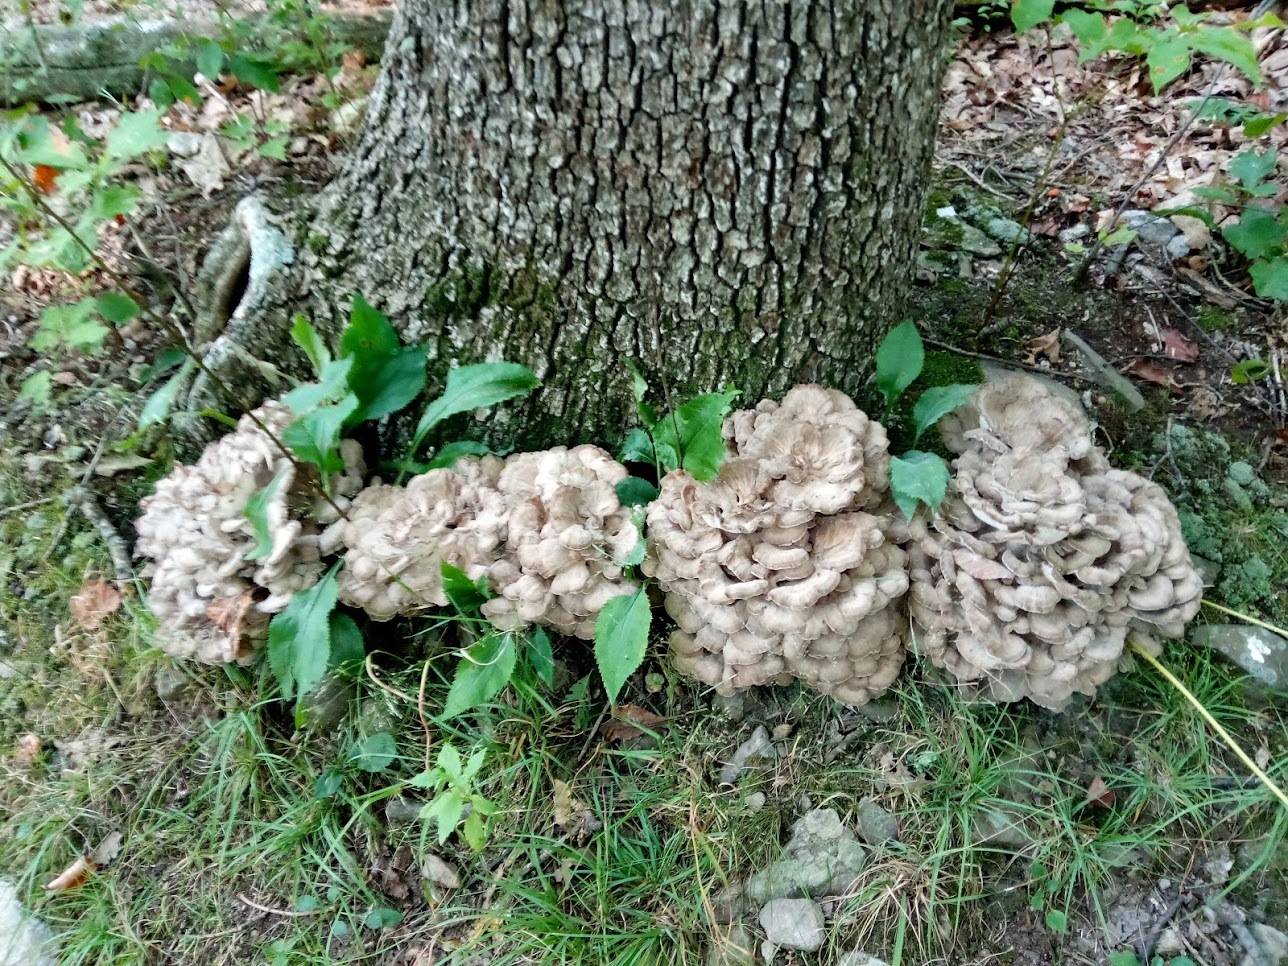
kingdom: Fungi
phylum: Basidiomycota
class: Agaricomycetes
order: Polyporales
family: Grifolaceae
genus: Grifola
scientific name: Grifola frondosa
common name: Hen of the woods
